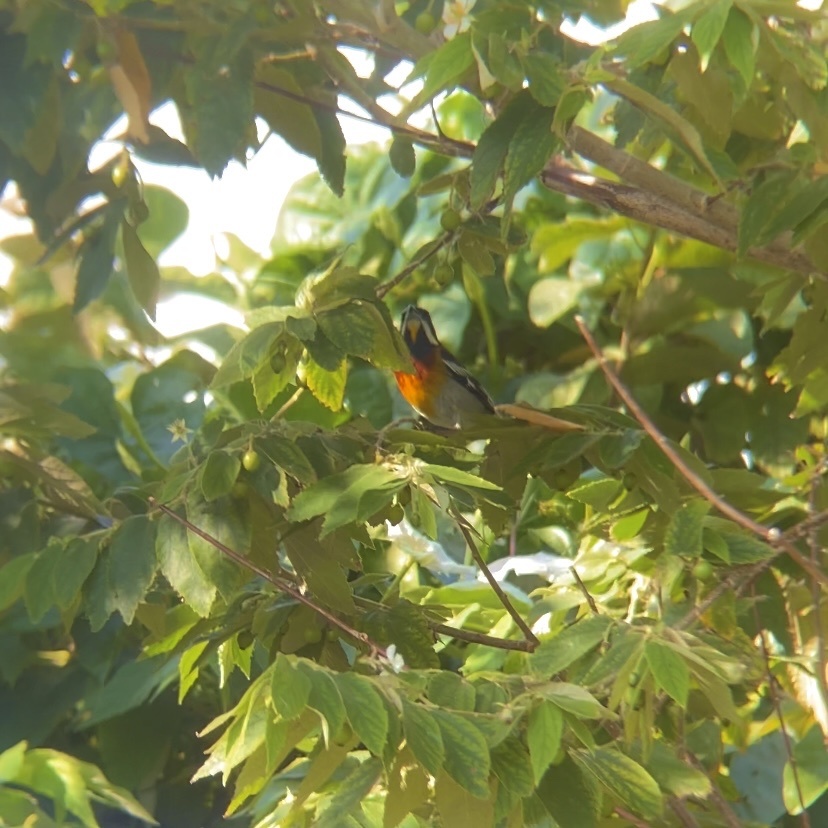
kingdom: Animalia
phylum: Chordata
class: Aves
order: Passeriformes
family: Spindalidae
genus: Spindalis
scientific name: Spindalis zena
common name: Western spindalis
